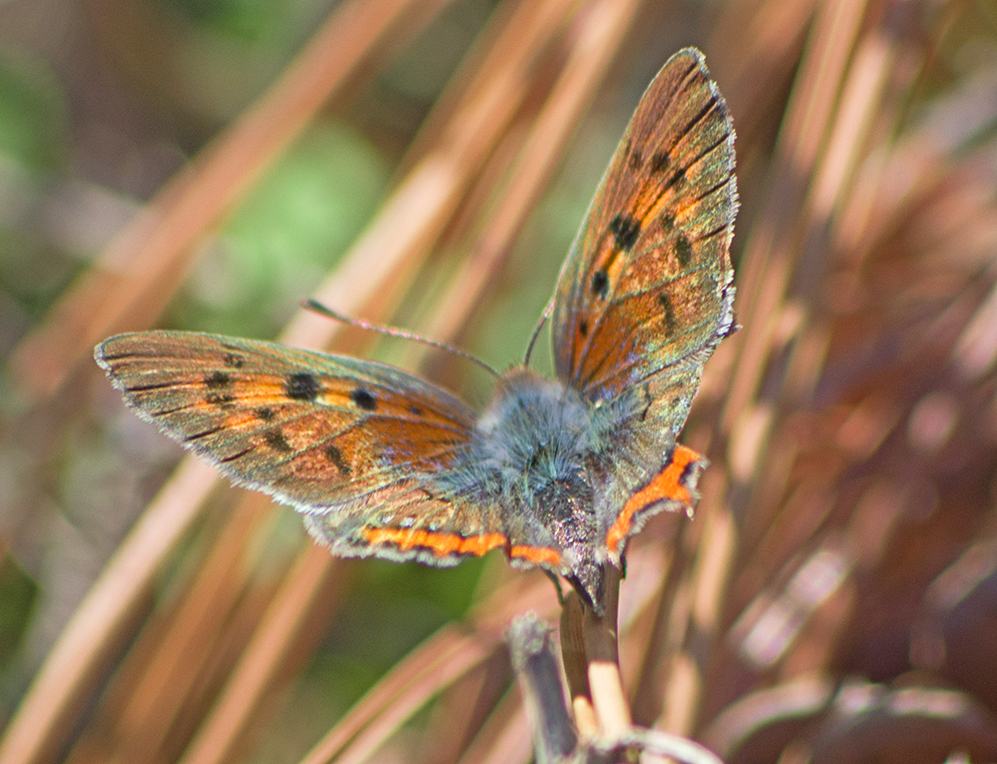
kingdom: Animalia
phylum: Arthropoda
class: Insecta
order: Lepidoptera
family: Lycaenidae
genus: Lycaena
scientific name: Lycaena phlaeas
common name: Small copper
